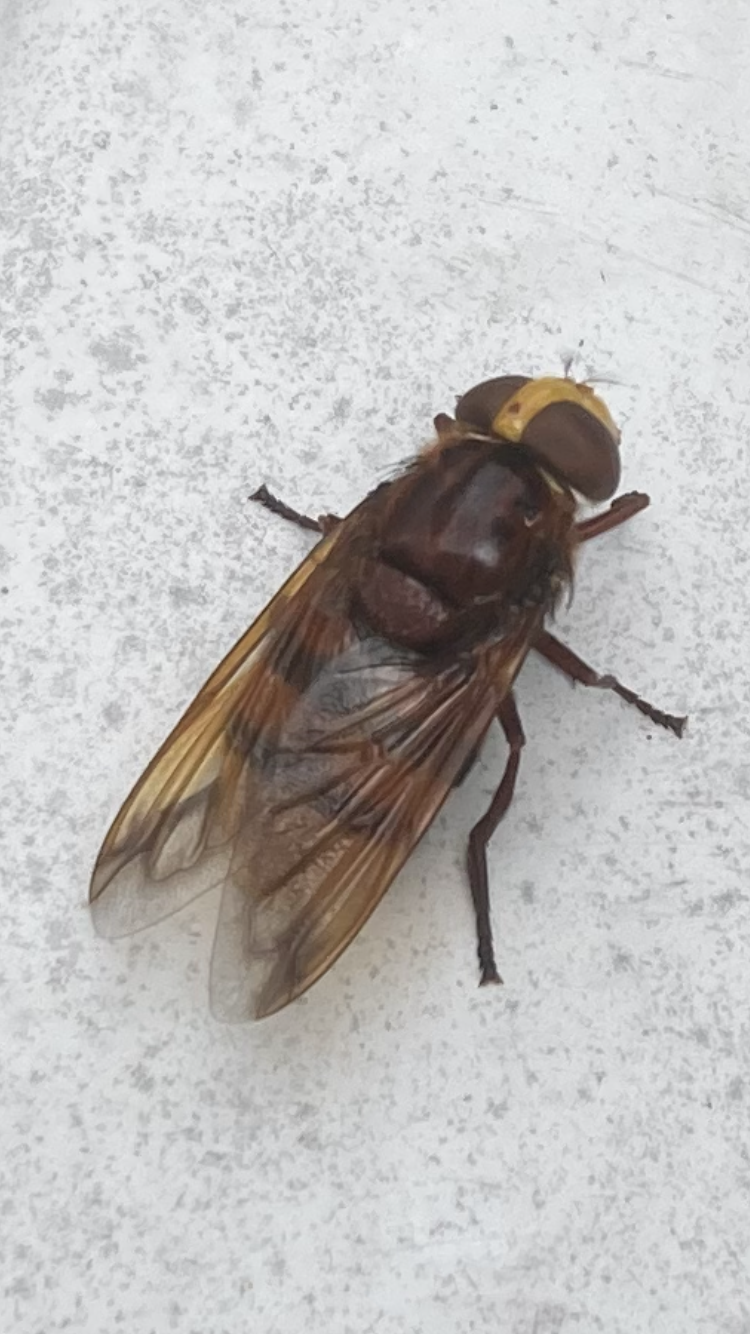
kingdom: Animalia
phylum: Arthropoda
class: Insecta
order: Diptera
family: Syrphidae
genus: Volucella
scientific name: Volucella zonaria
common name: Hornet hoverfly
